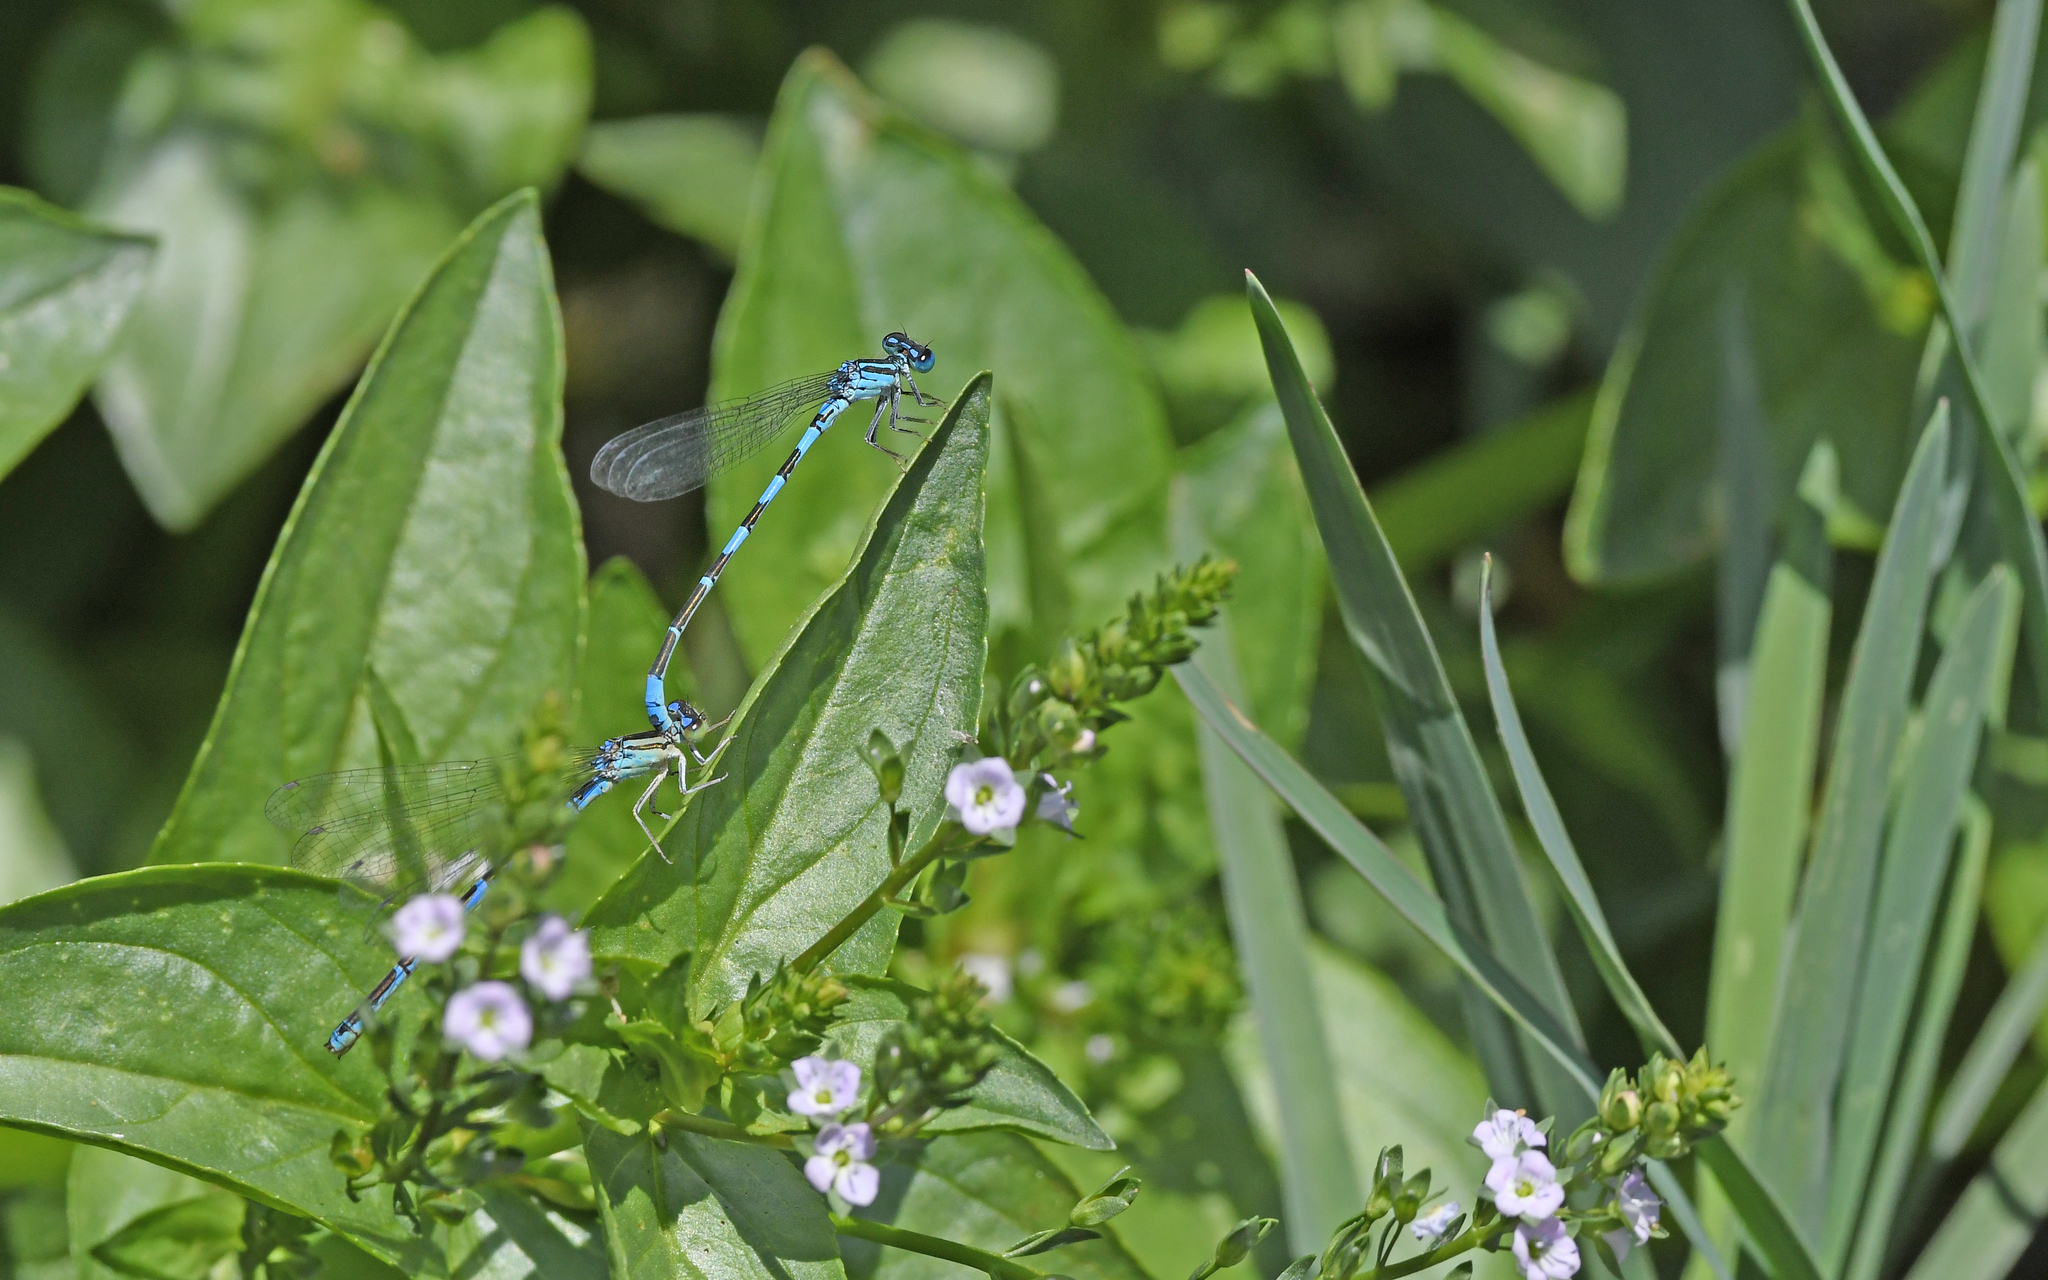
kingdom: Animalia
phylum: Arthropoda
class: Insecta
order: Odonata
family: Coenagrionidae
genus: Coenagrion
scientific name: Coenagrion caerulescens
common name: Mediterranean bluet
